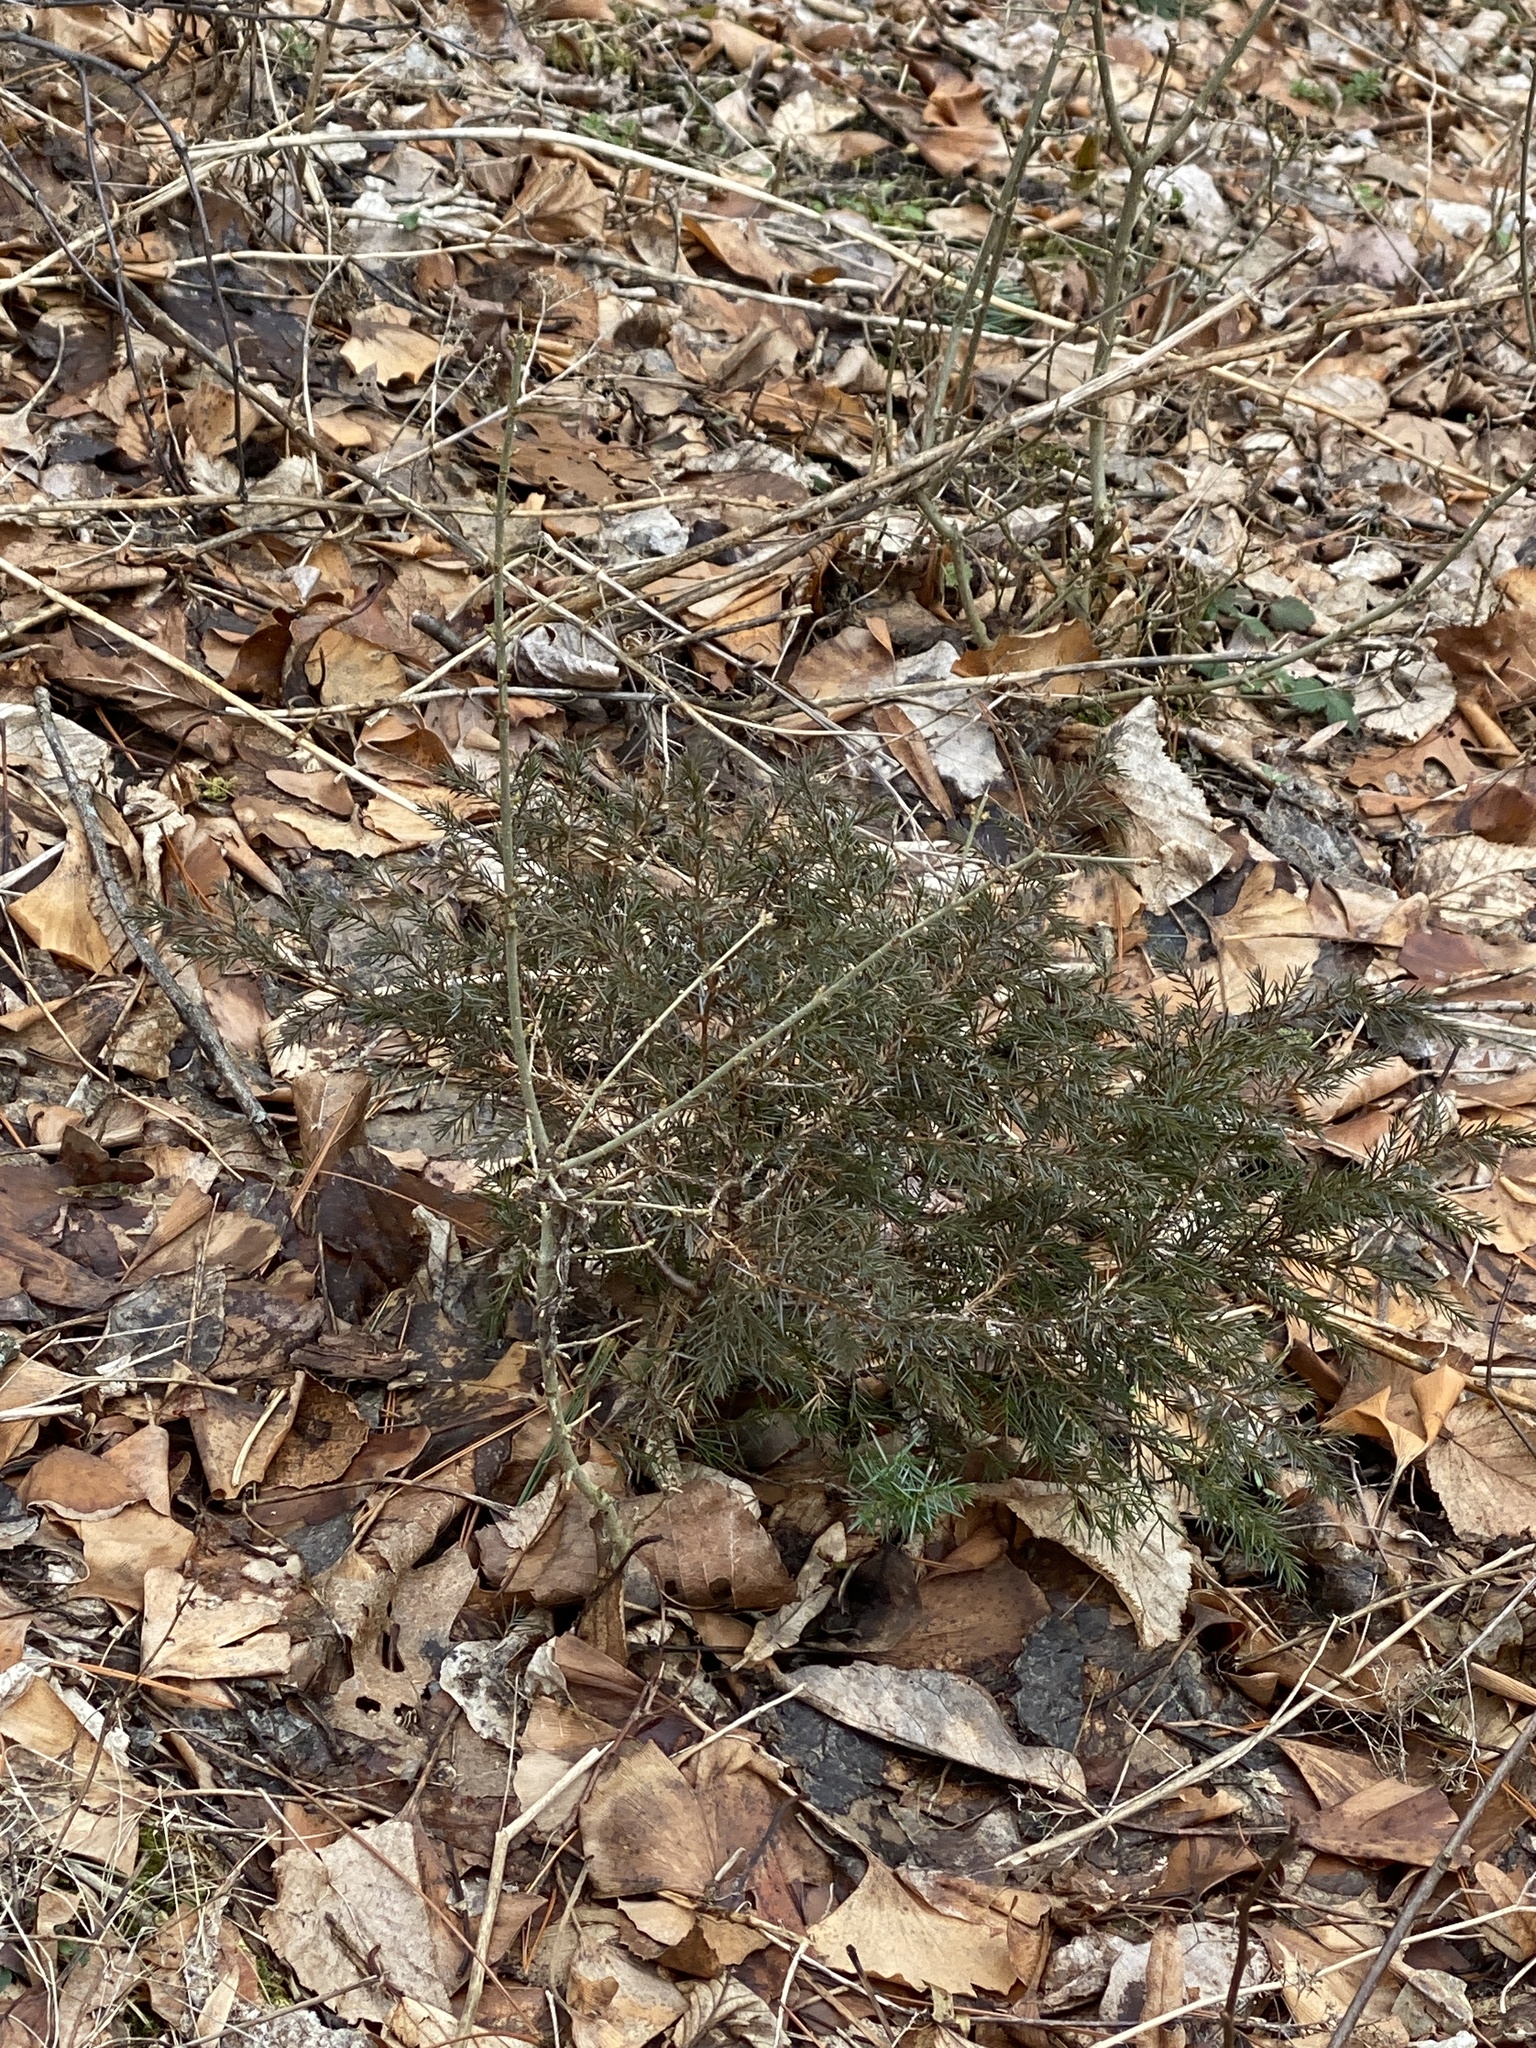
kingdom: Plantae
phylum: Tracheophyta
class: Pinopsida
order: Pinales
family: Cupressaceae
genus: Juniperus
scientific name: Juniperus virginiana
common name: Red juniper
